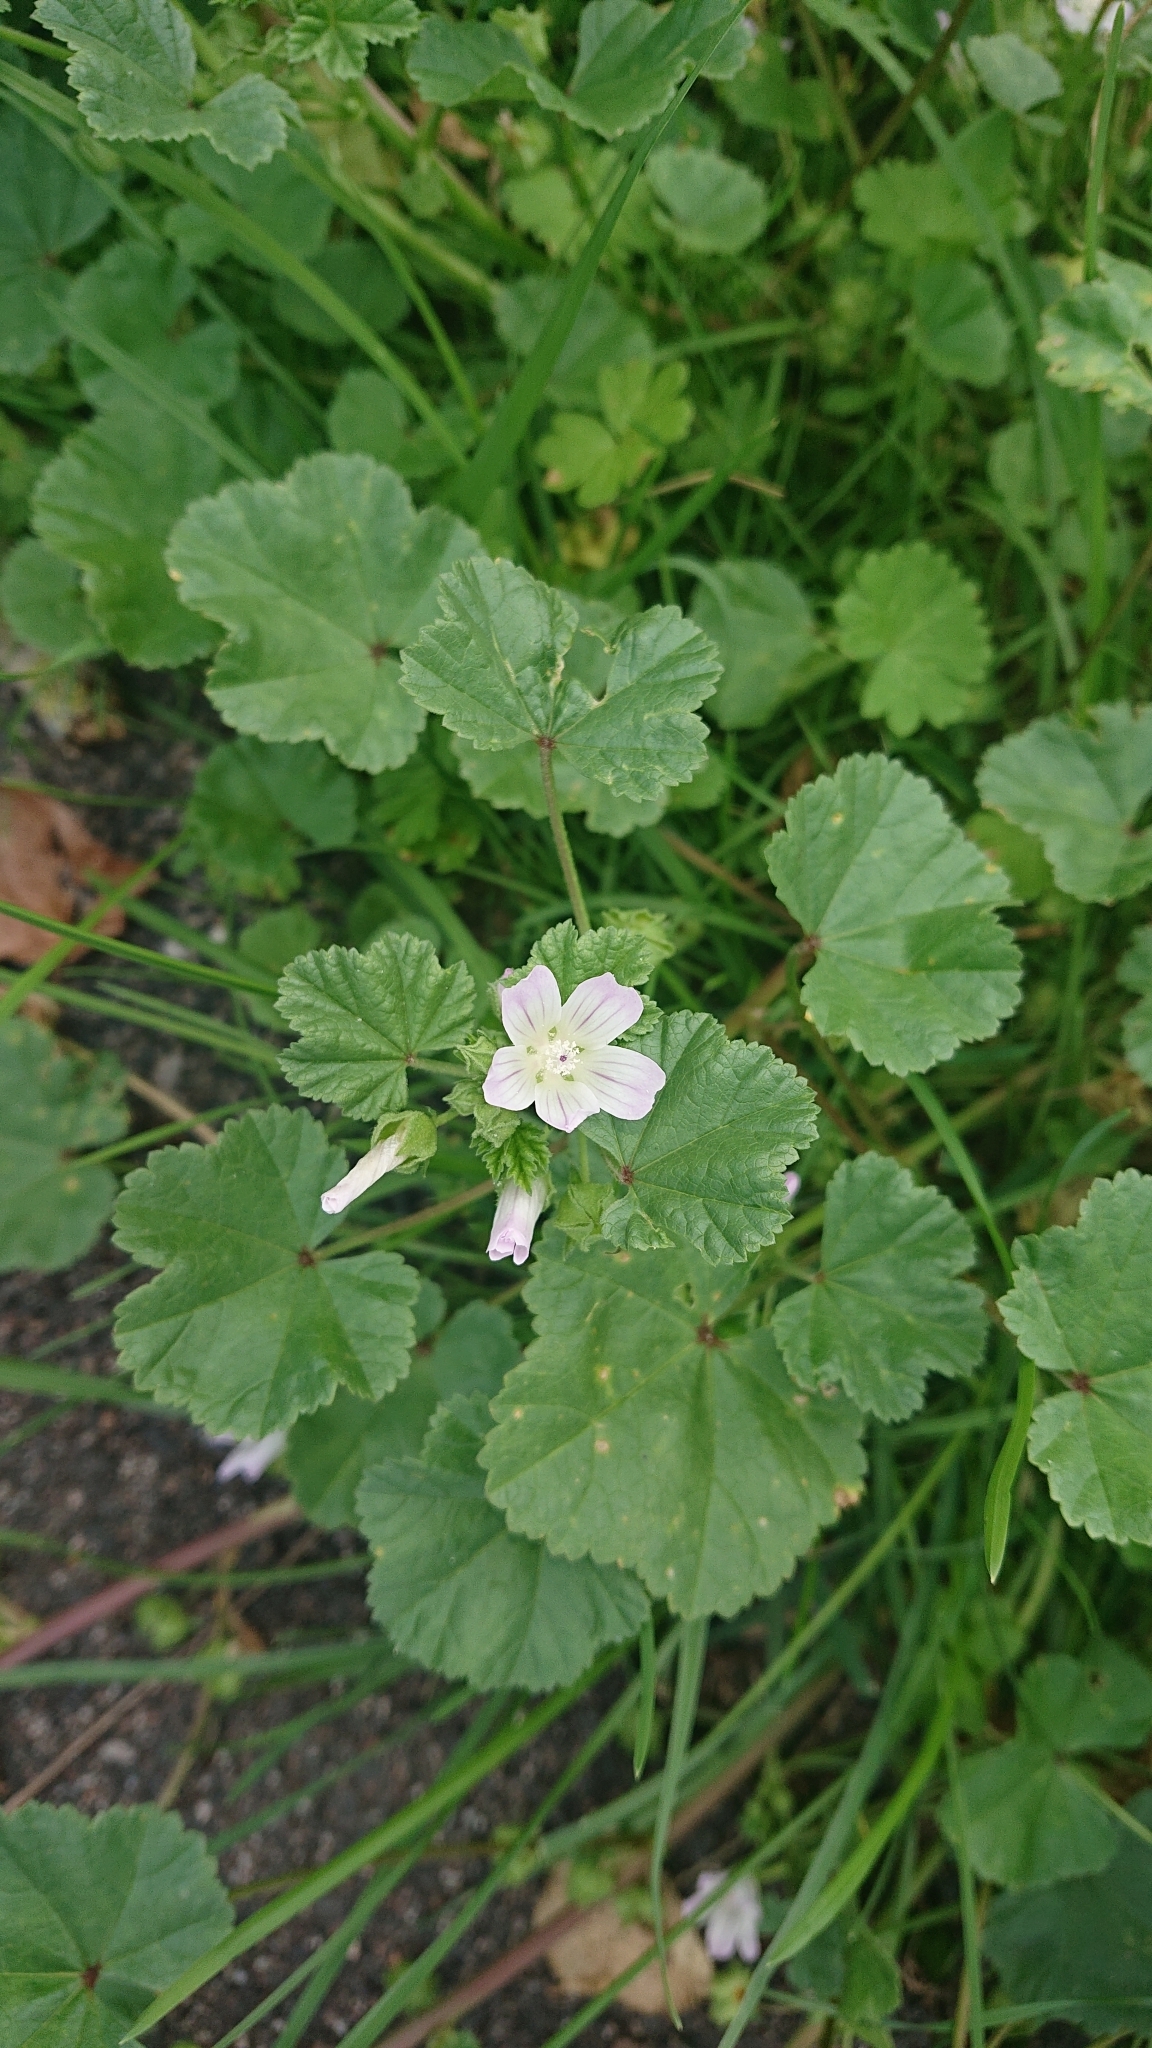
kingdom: Plantae
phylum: Tracheophyta
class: Magnoliopsida
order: Malvales
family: Malvaceae
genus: Malva
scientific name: Malva neglecta
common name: Common mallow
